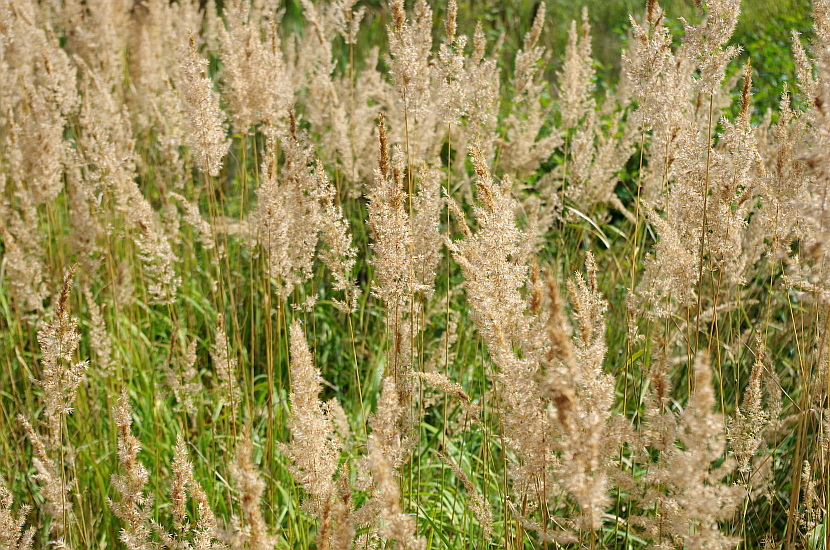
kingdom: Plantae
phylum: Tracheophyta
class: Liliopsida
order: Poales
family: Poaceae
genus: Calamagrostis
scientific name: Calamagrostis epigejos
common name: Wood small-reed
